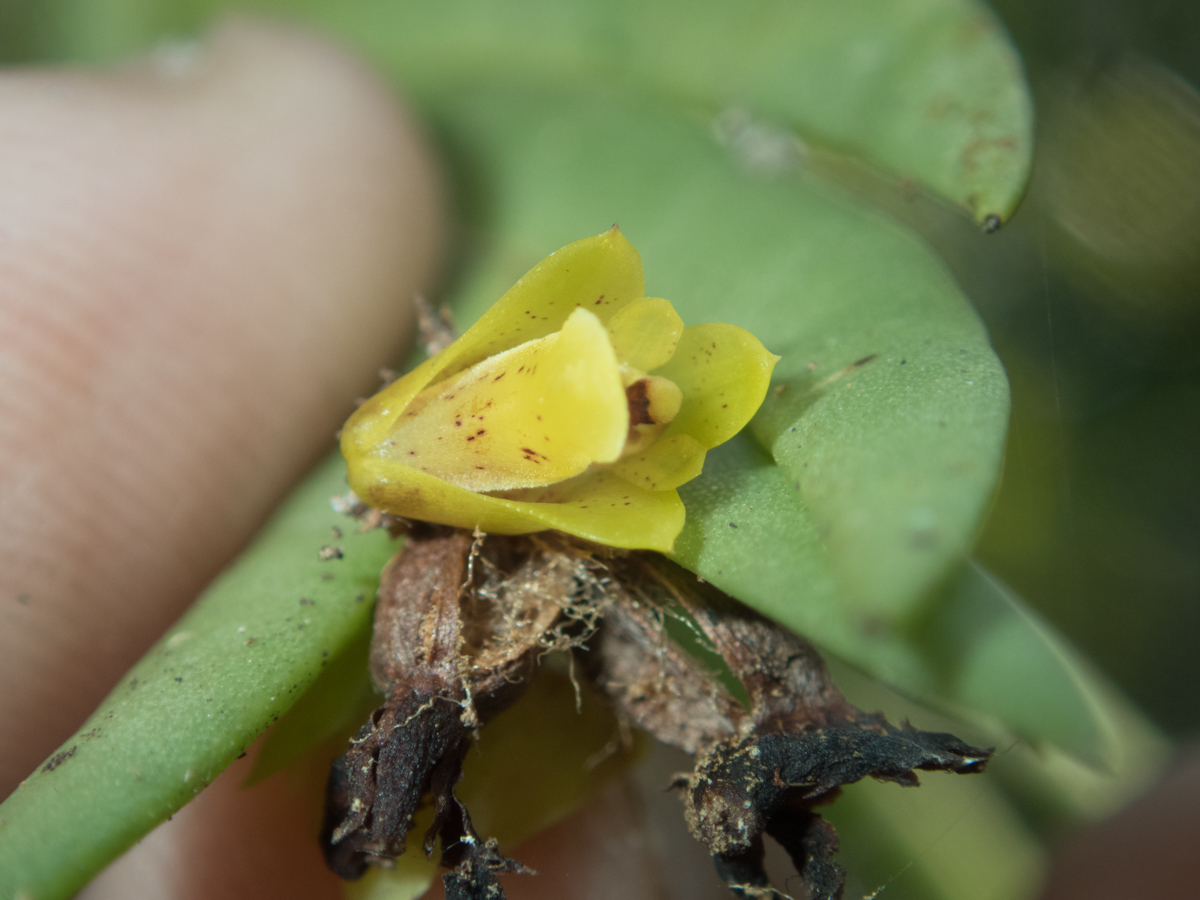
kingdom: Plantae
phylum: Tracheophyta
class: Liliopsida
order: Asparagales
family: Orchidaceae
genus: Oxystophyllum
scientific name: Oxystophyllum carnosum
